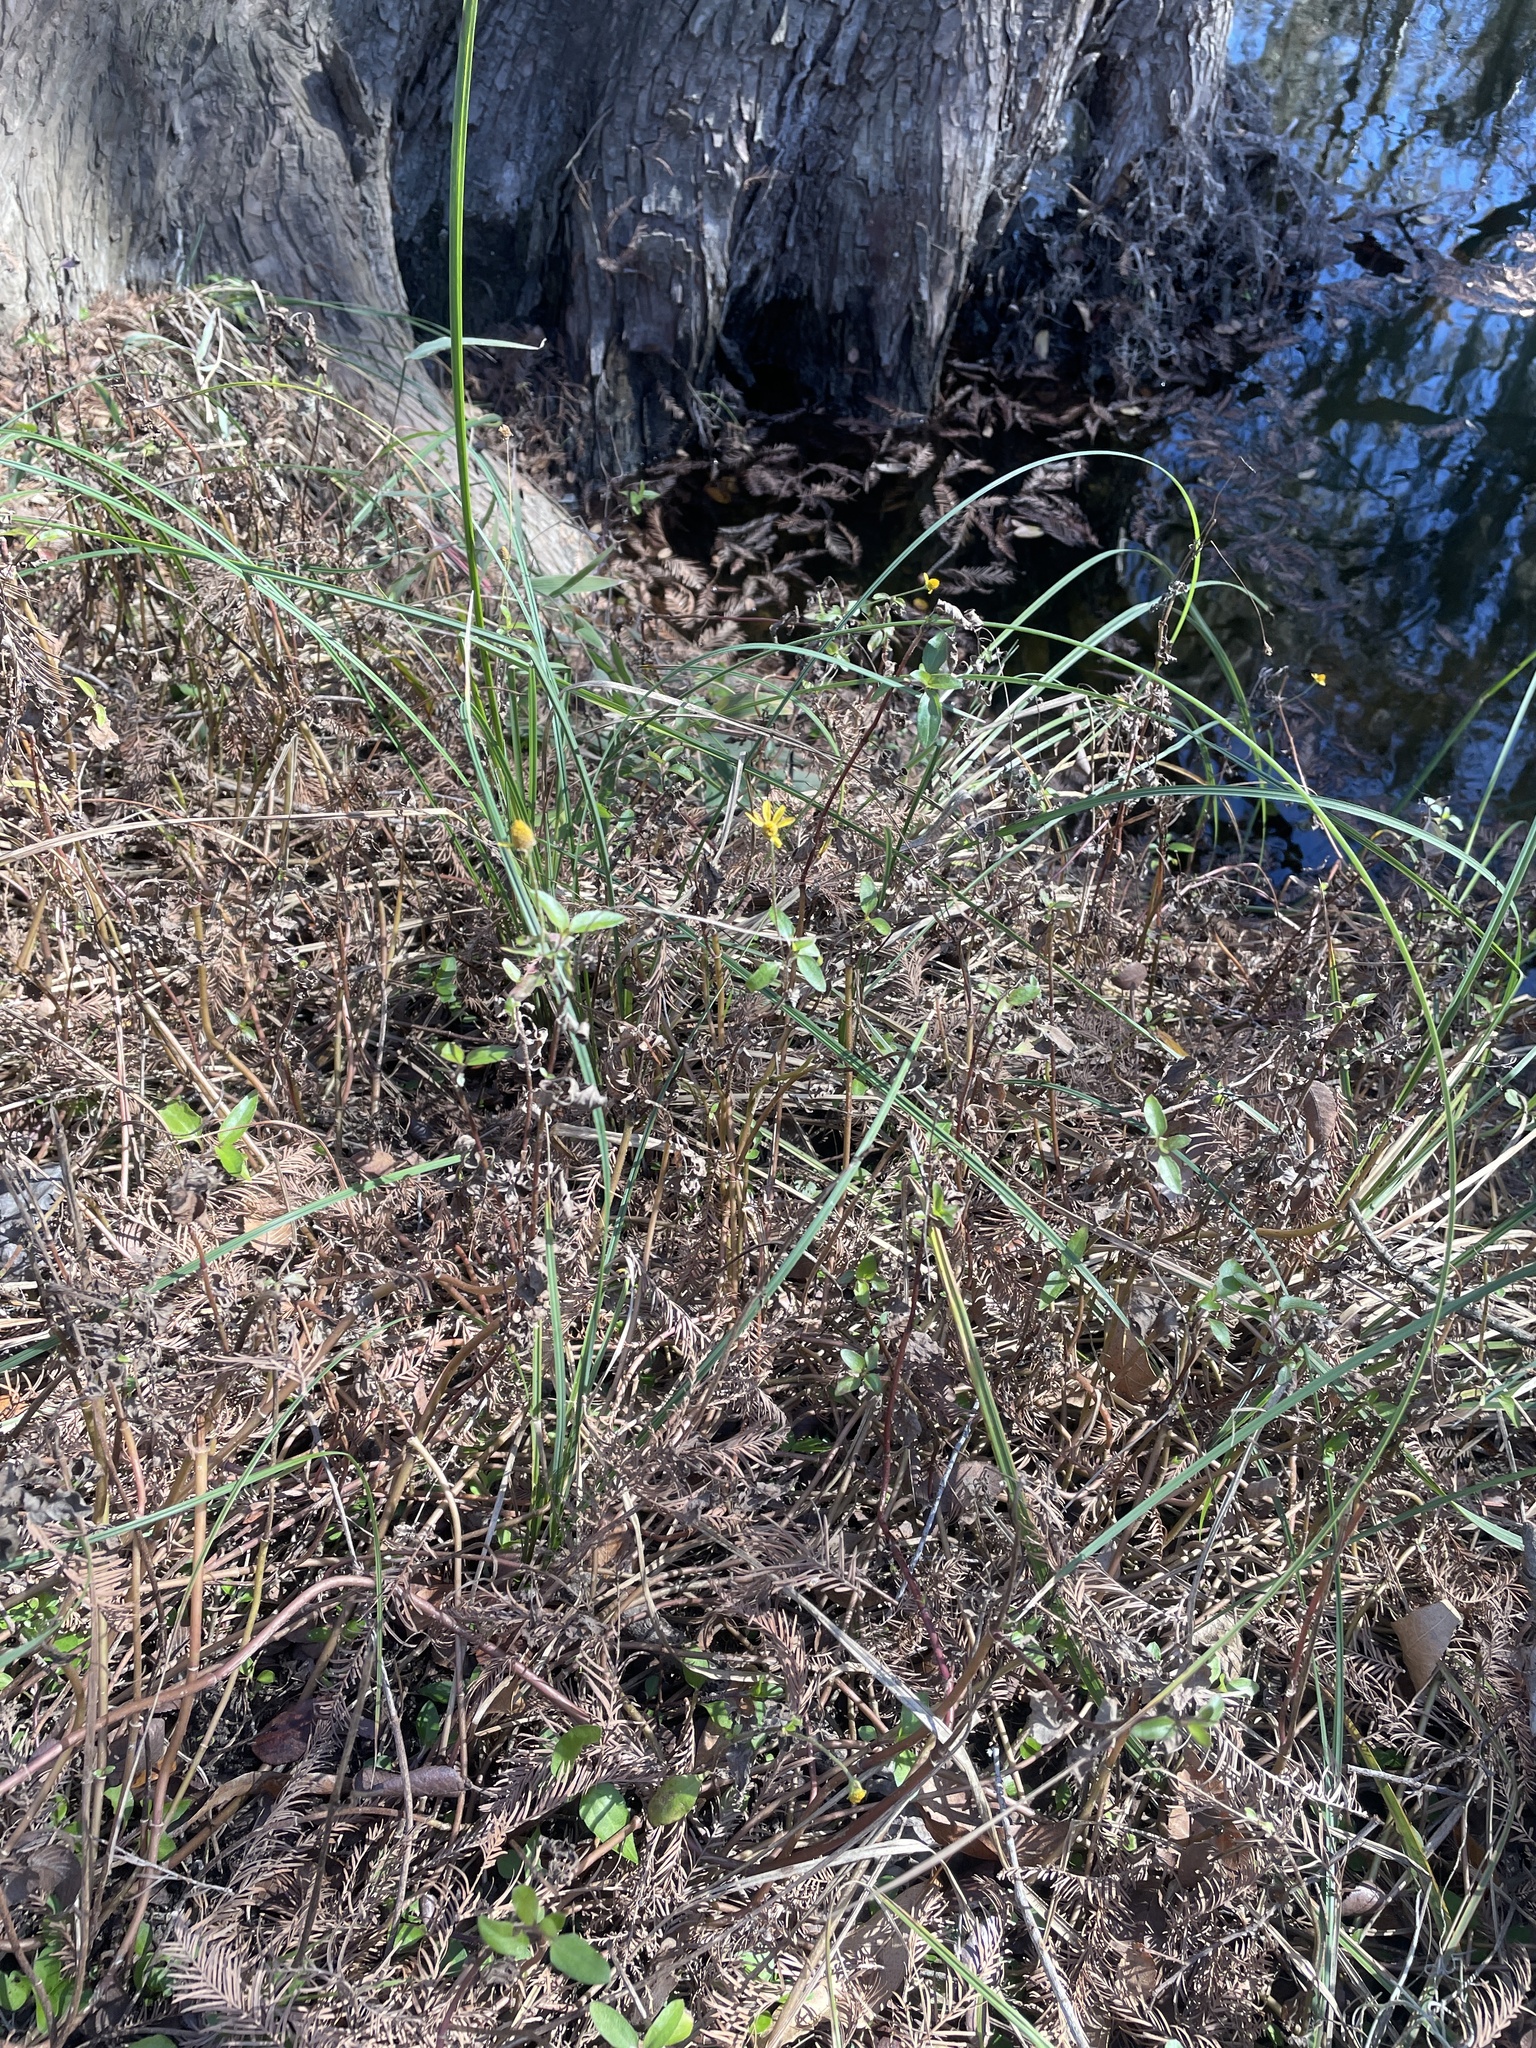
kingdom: Plantae
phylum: Tracheophyta
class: Magnoliopsida
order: Asterales
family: Asteraceae
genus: Acmella
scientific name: Acmella repens
